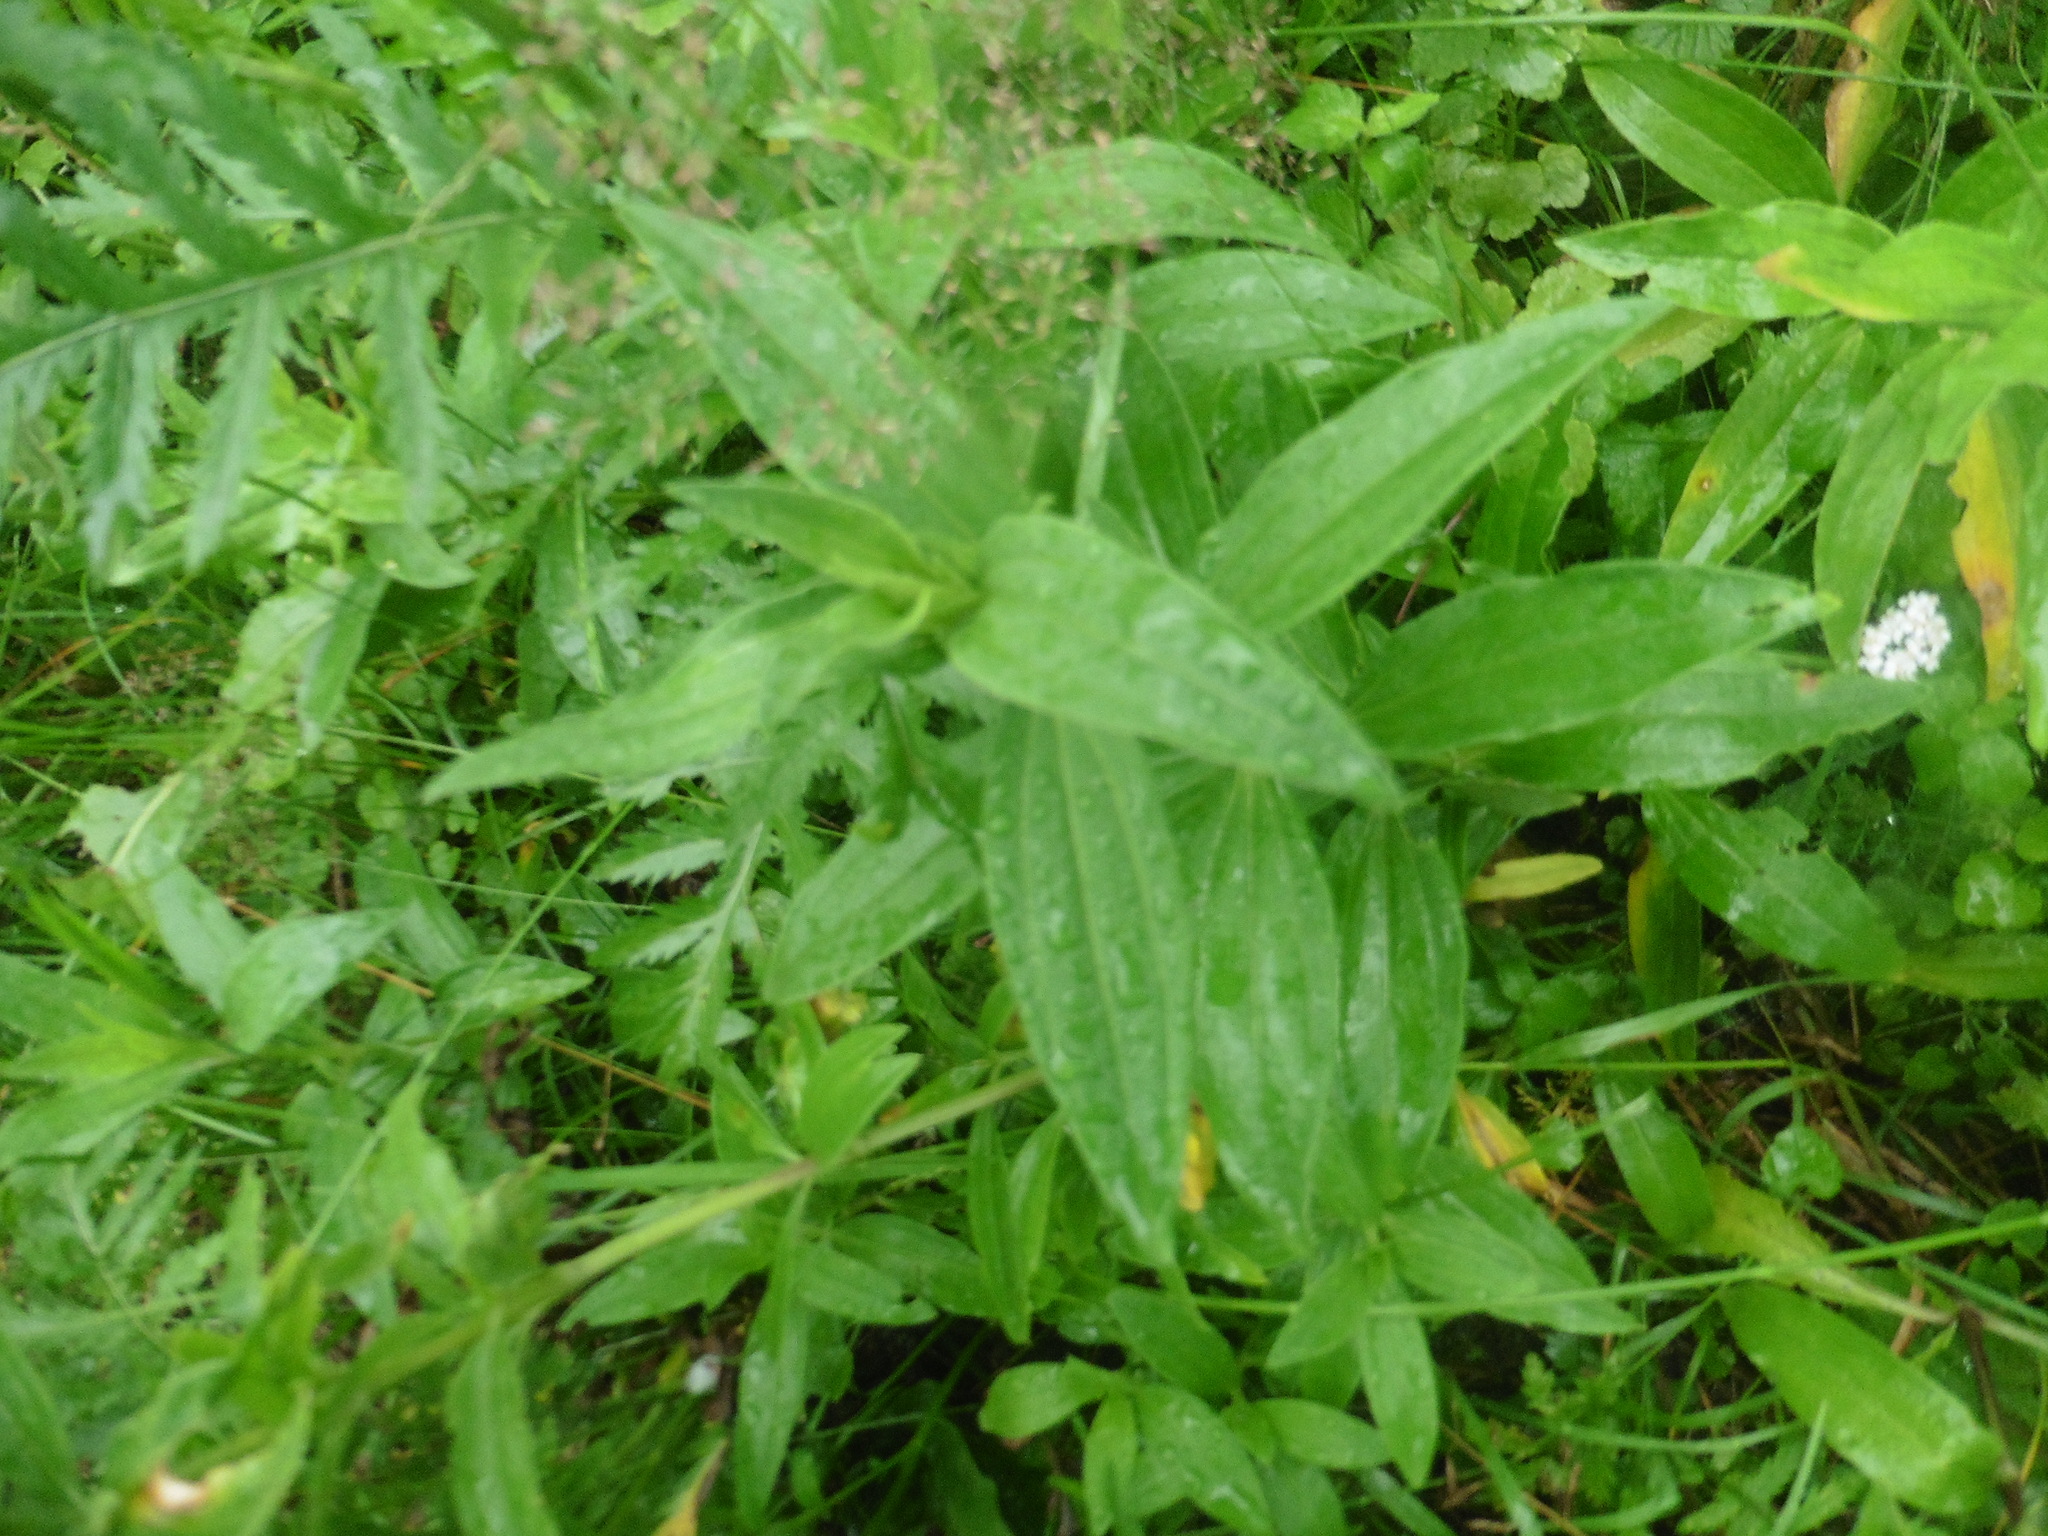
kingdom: Plantae
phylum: Tracheophyta
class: Magnoliopsida
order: Caryophyllales
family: Caryophyllaceae
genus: Saponaria
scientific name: Saponaria officinalis
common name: Soapwort
